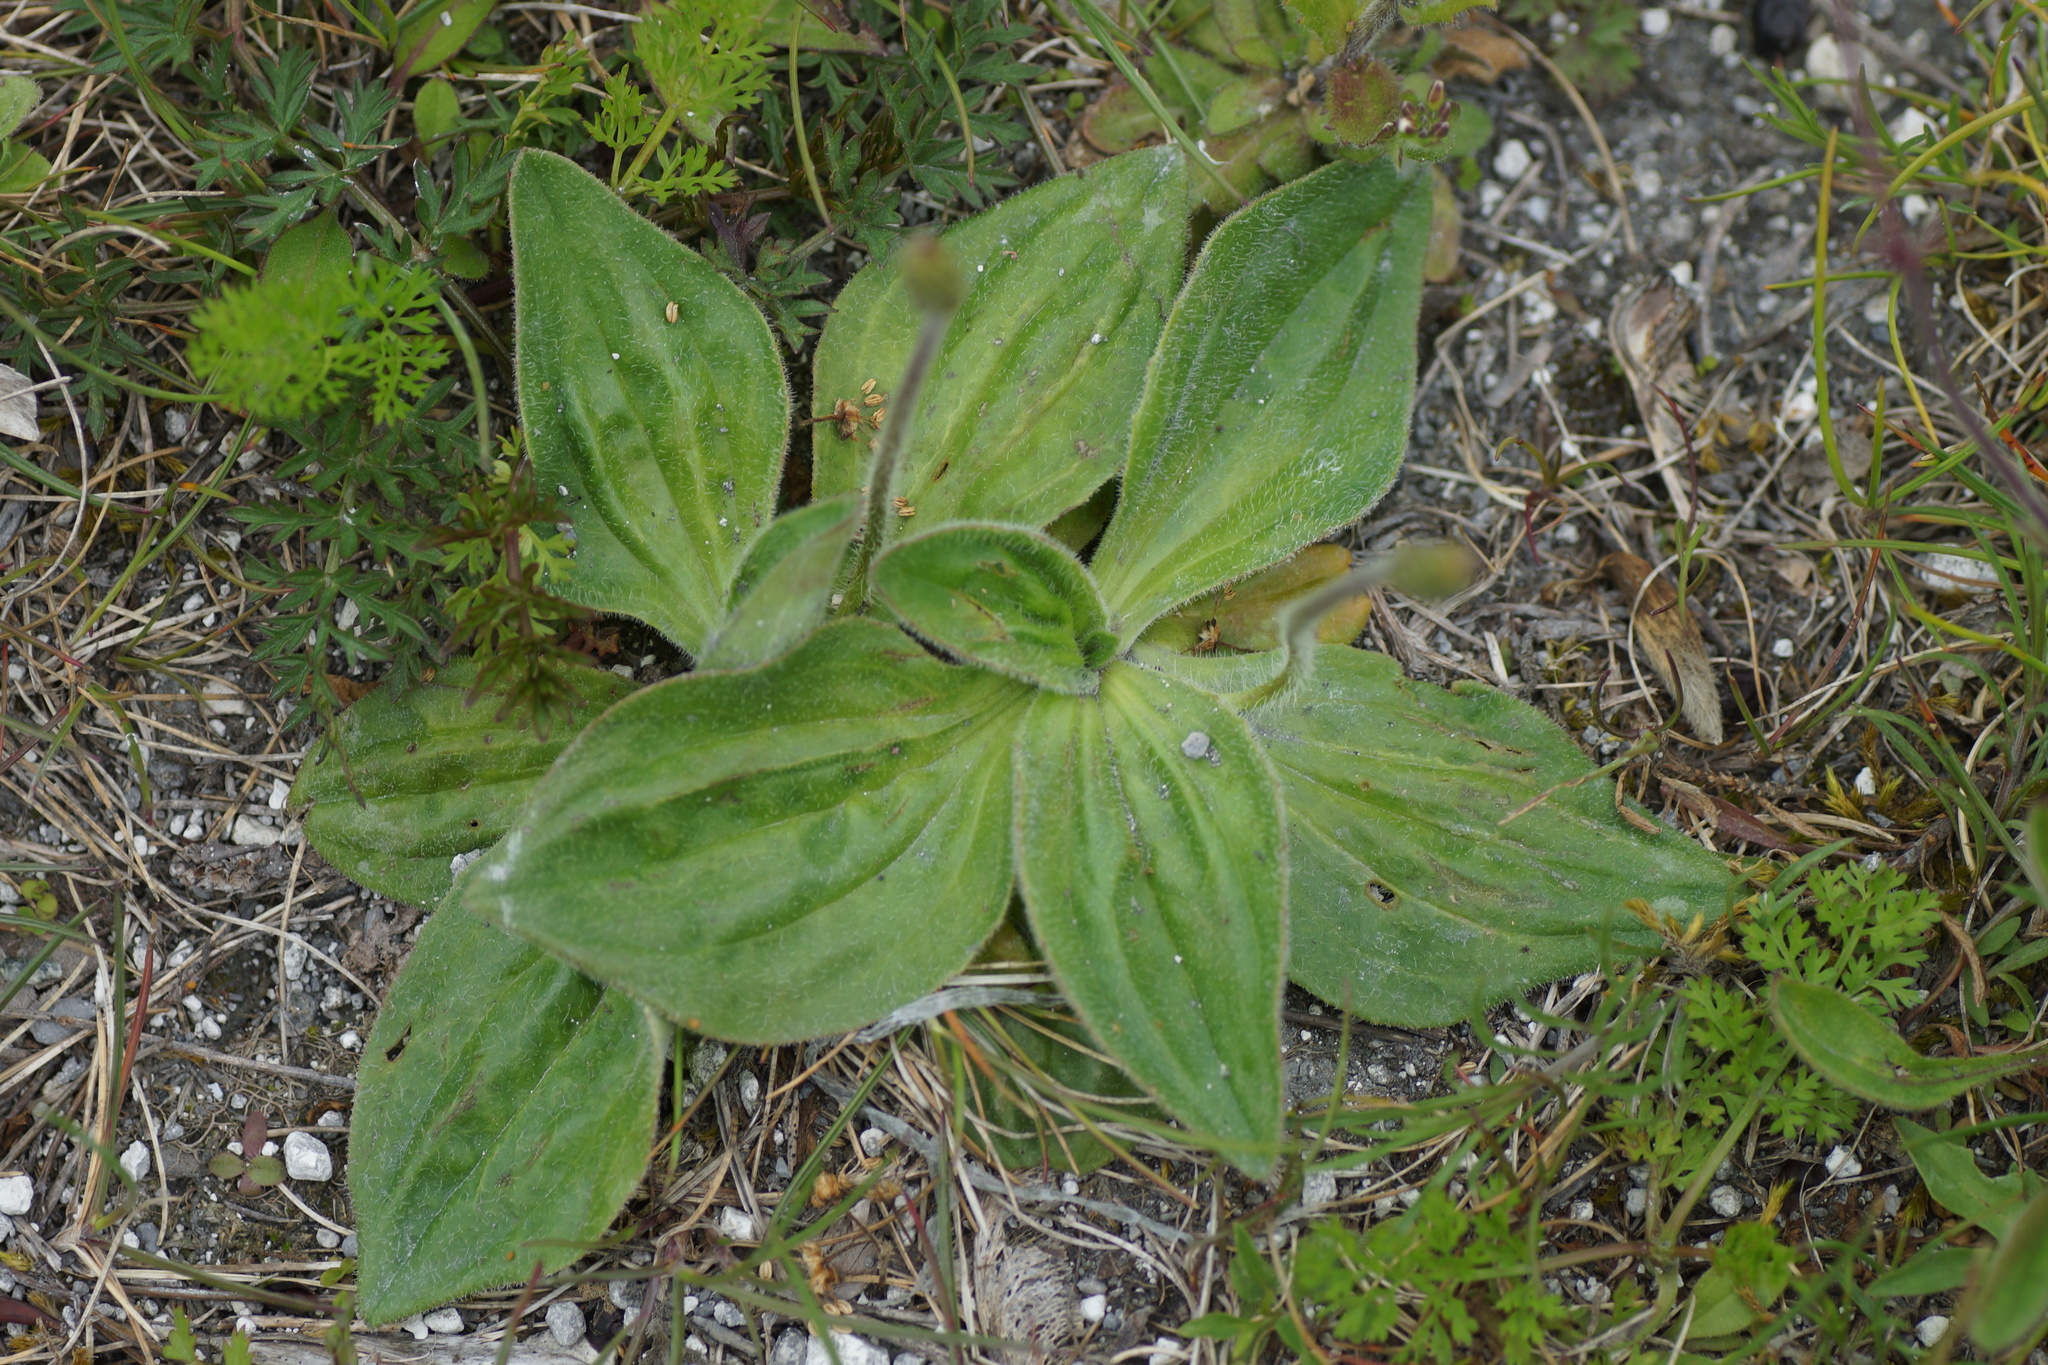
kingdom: Plantae
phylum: Tracheophyta
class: Magnoliopsida
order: Lamiales
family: Plantaginaceae
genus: Plantago
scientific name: Plantago media
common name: Hoary plantain
